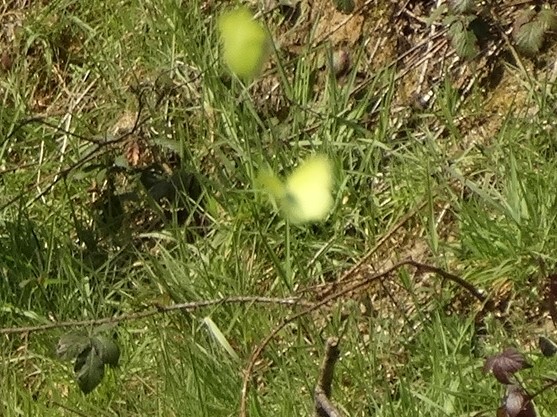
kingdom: Animalia
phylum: Arthropoda
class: Insecta
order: Lepidoptera
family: Pieridae
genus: Gonepteryx
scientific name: Gonepteryx rhamni
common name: Brimstone
